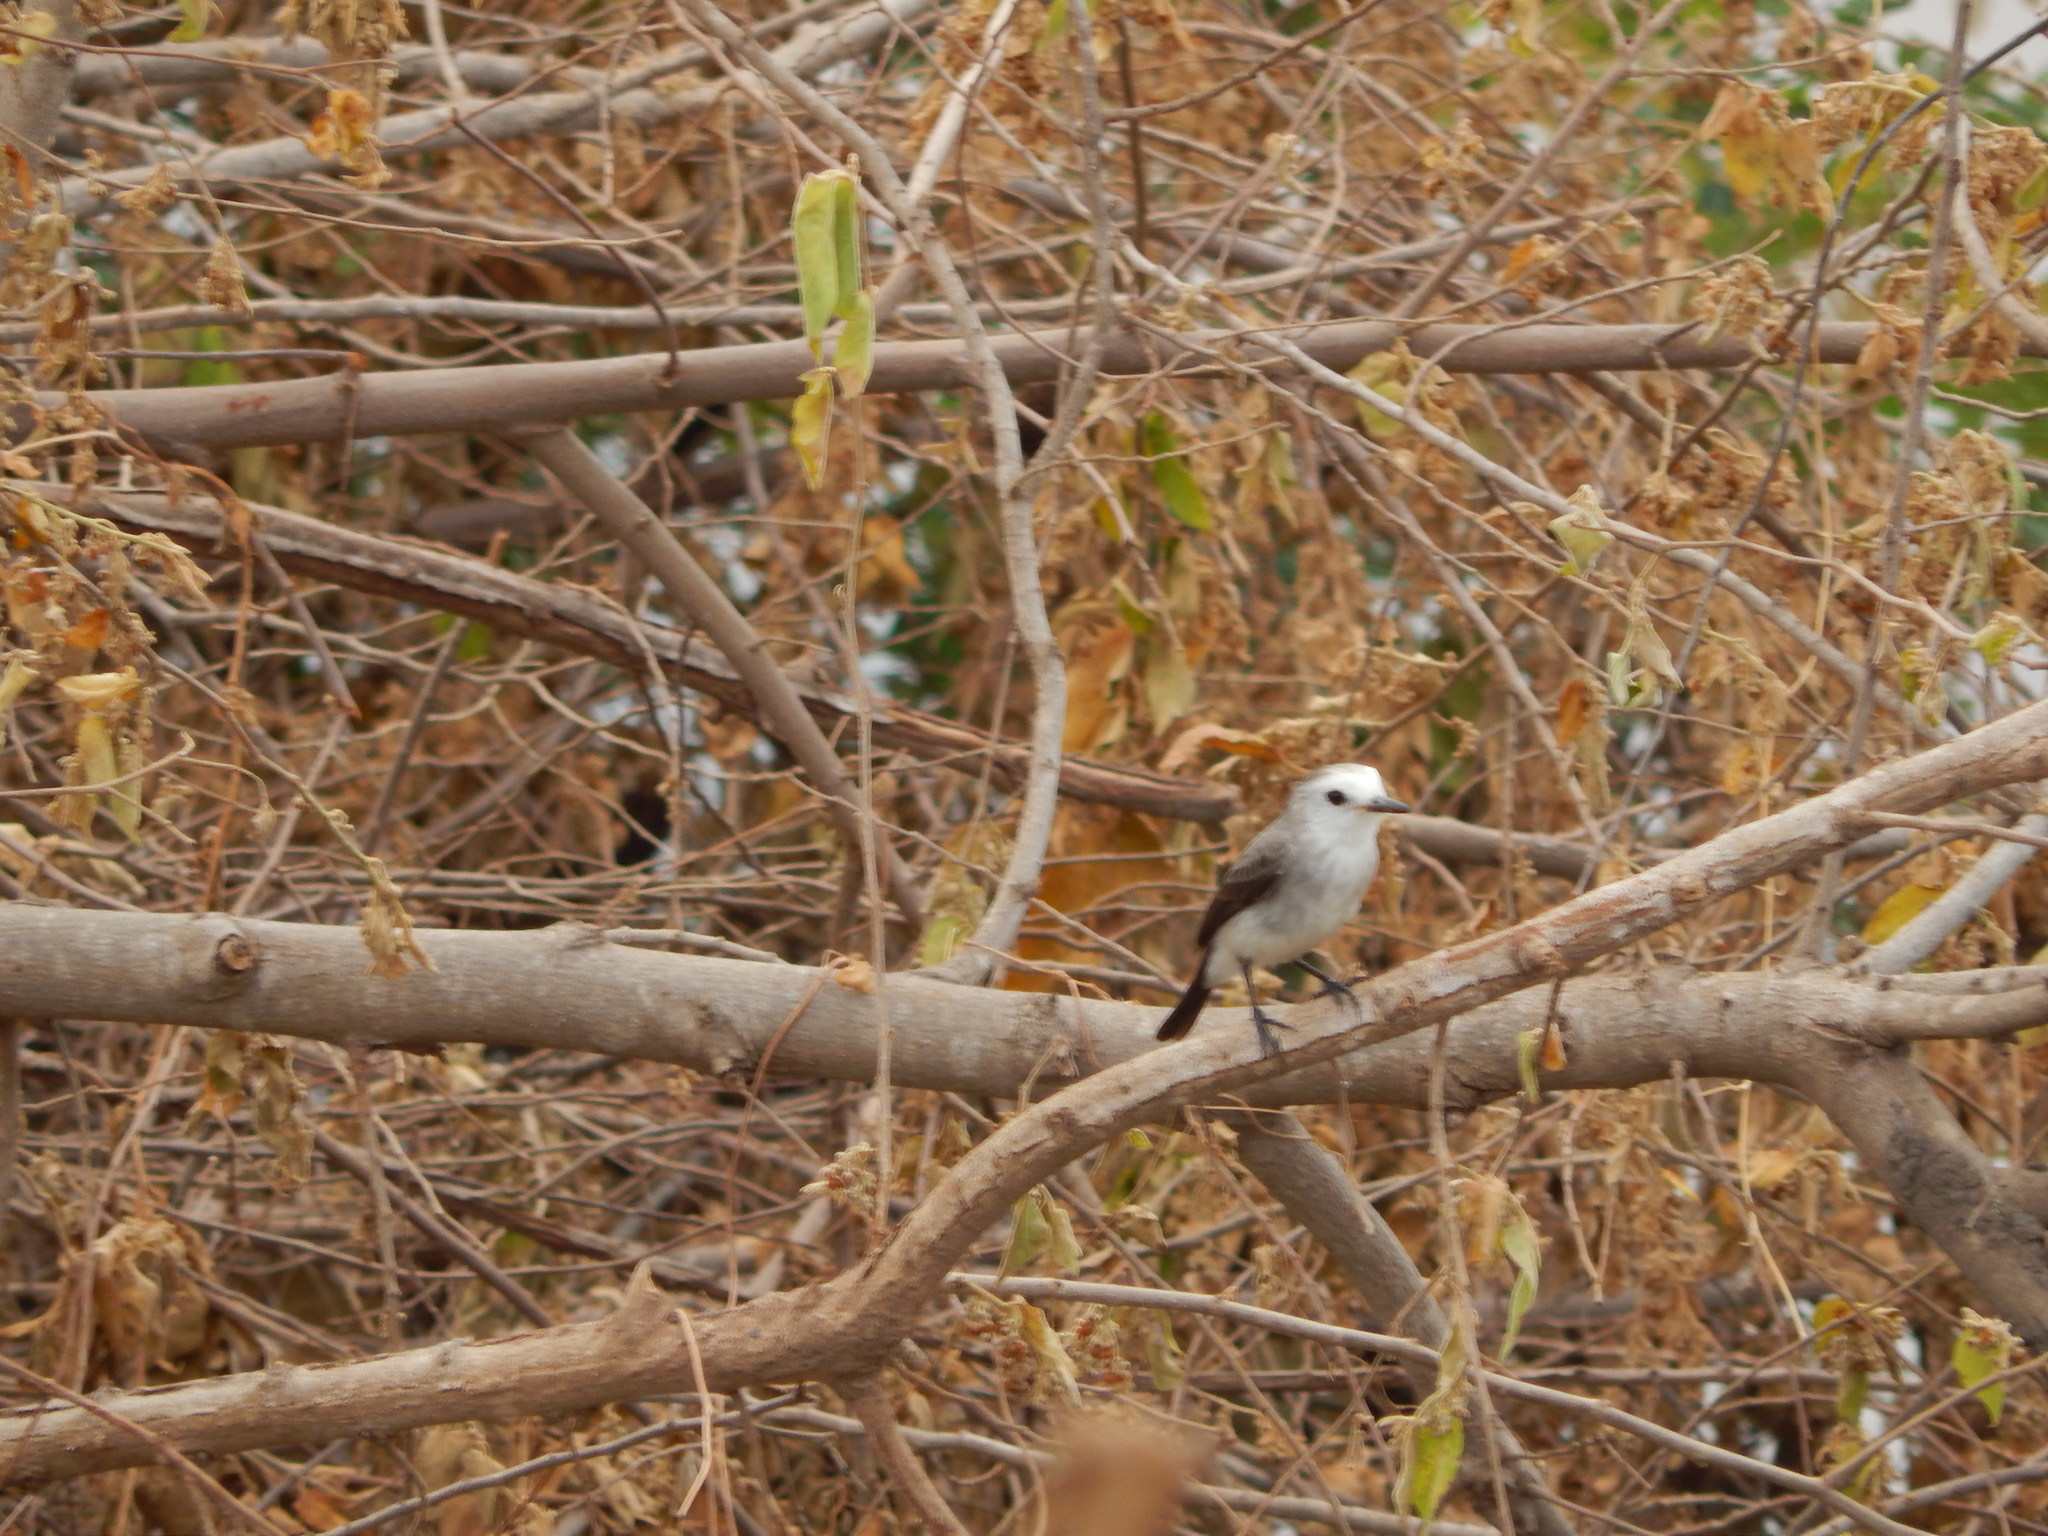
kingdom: Animalia
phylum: Chordata
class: Aves
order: Passeriformes
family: Tyrannidae
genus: Arundinicola
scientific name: Arundinicola leucocephala
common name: White-headed marsh tyrant
